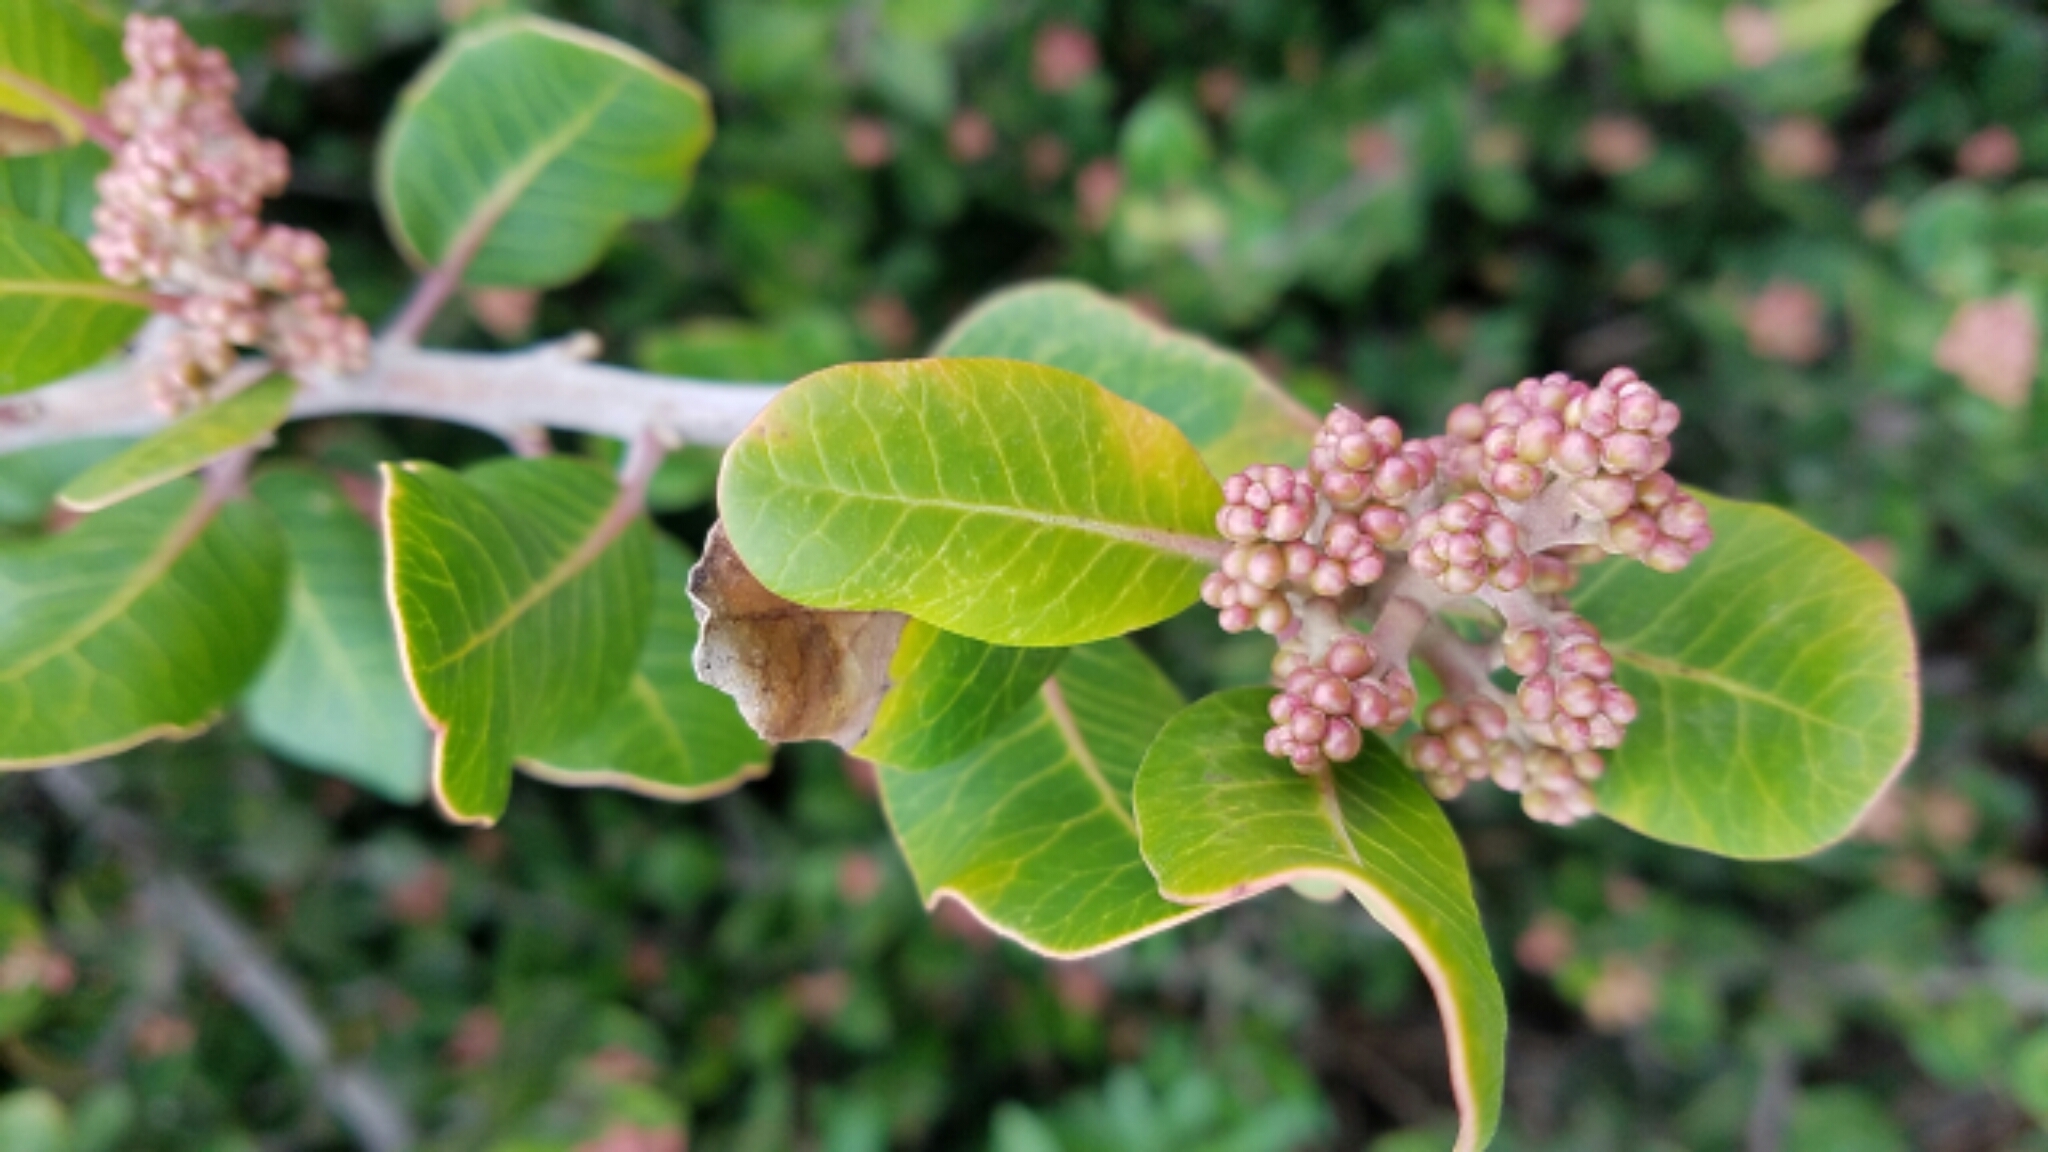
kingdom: Plantae
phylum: Tracheophyta
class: Magnoliopsida
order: Sapindales
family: Anacardiaceae
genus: Rhus
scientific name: Rhus integrifolia
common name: Lemonade sumac
